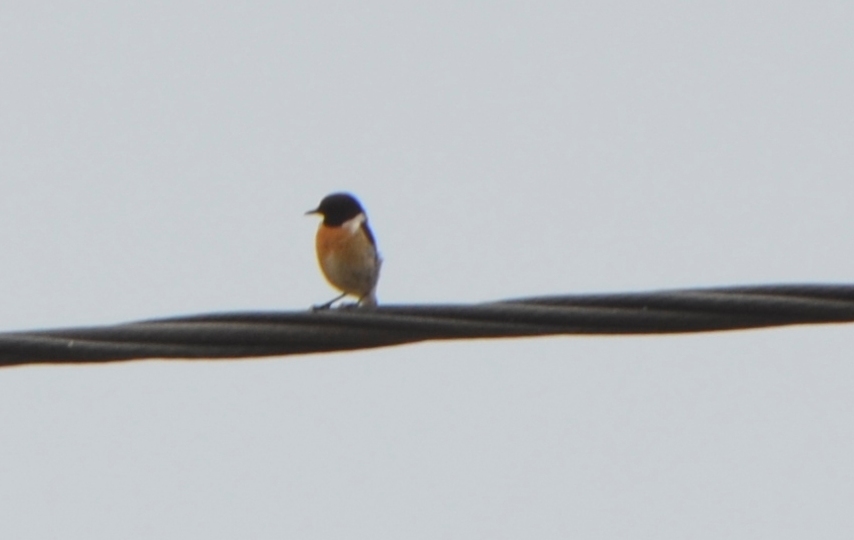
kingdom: Animalia
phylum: Chordata
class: Aves
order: Passeriformes
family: Muscicapidae
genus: Saxicola
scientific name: Saxicola rubicola
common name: European stonechat
